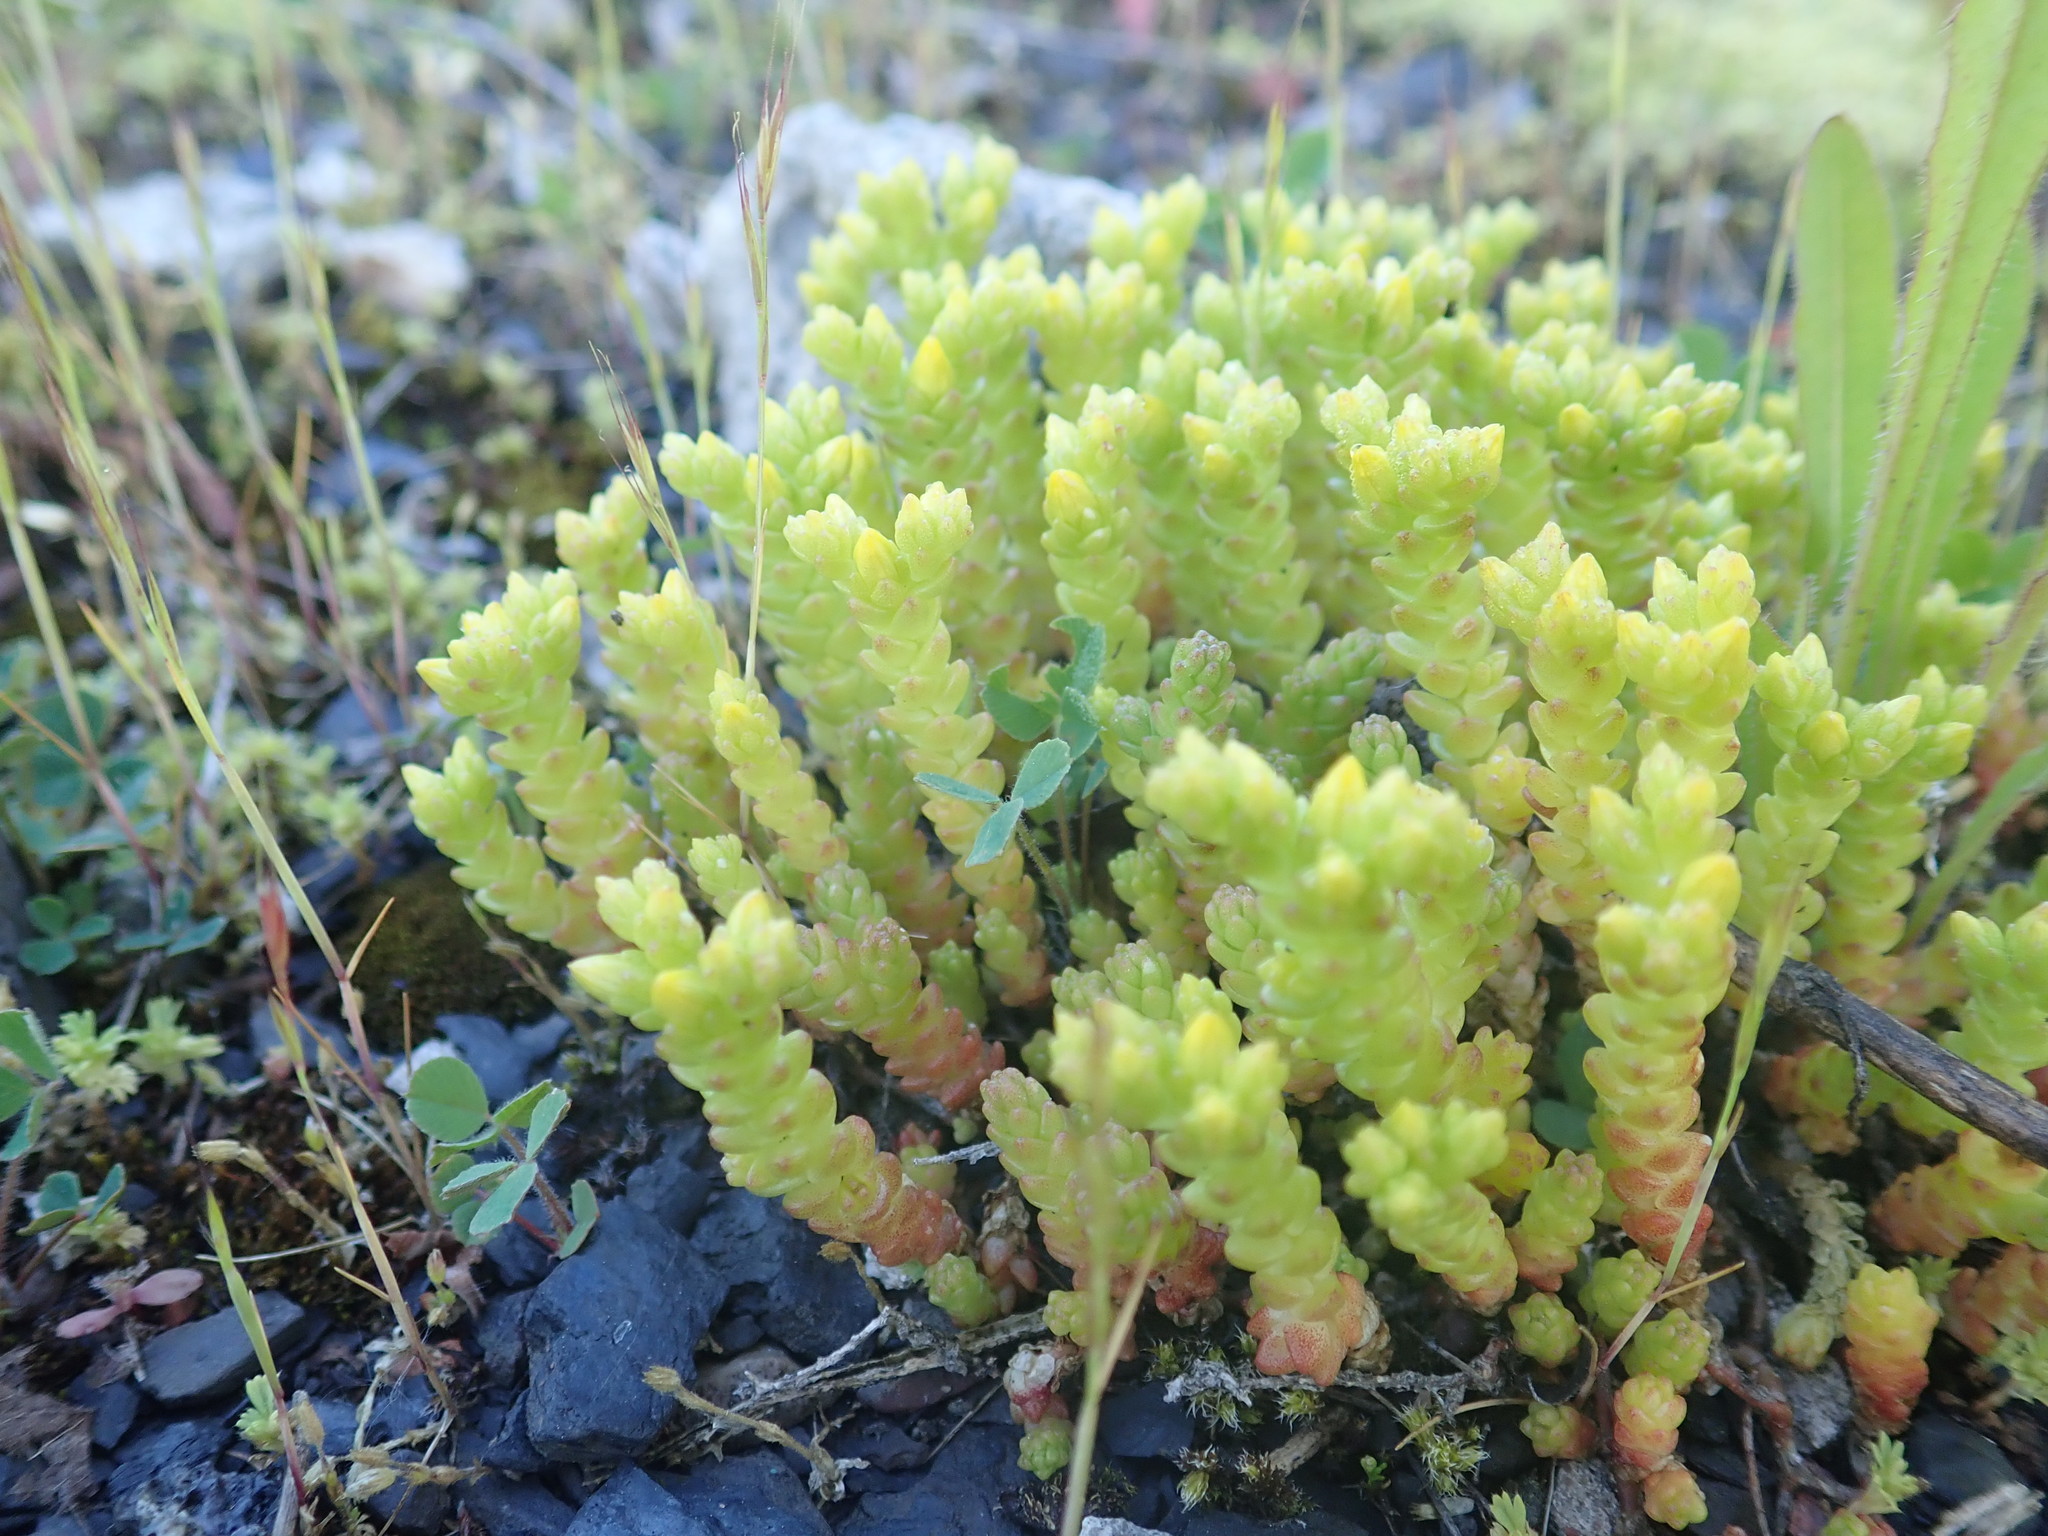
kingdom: Plantae
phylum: Tracheophyta
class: Magnoliopsida
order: Saxifragales
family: Crassulaceae
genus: Sedum
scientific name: Sedum acre
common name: Biting stonecrop
